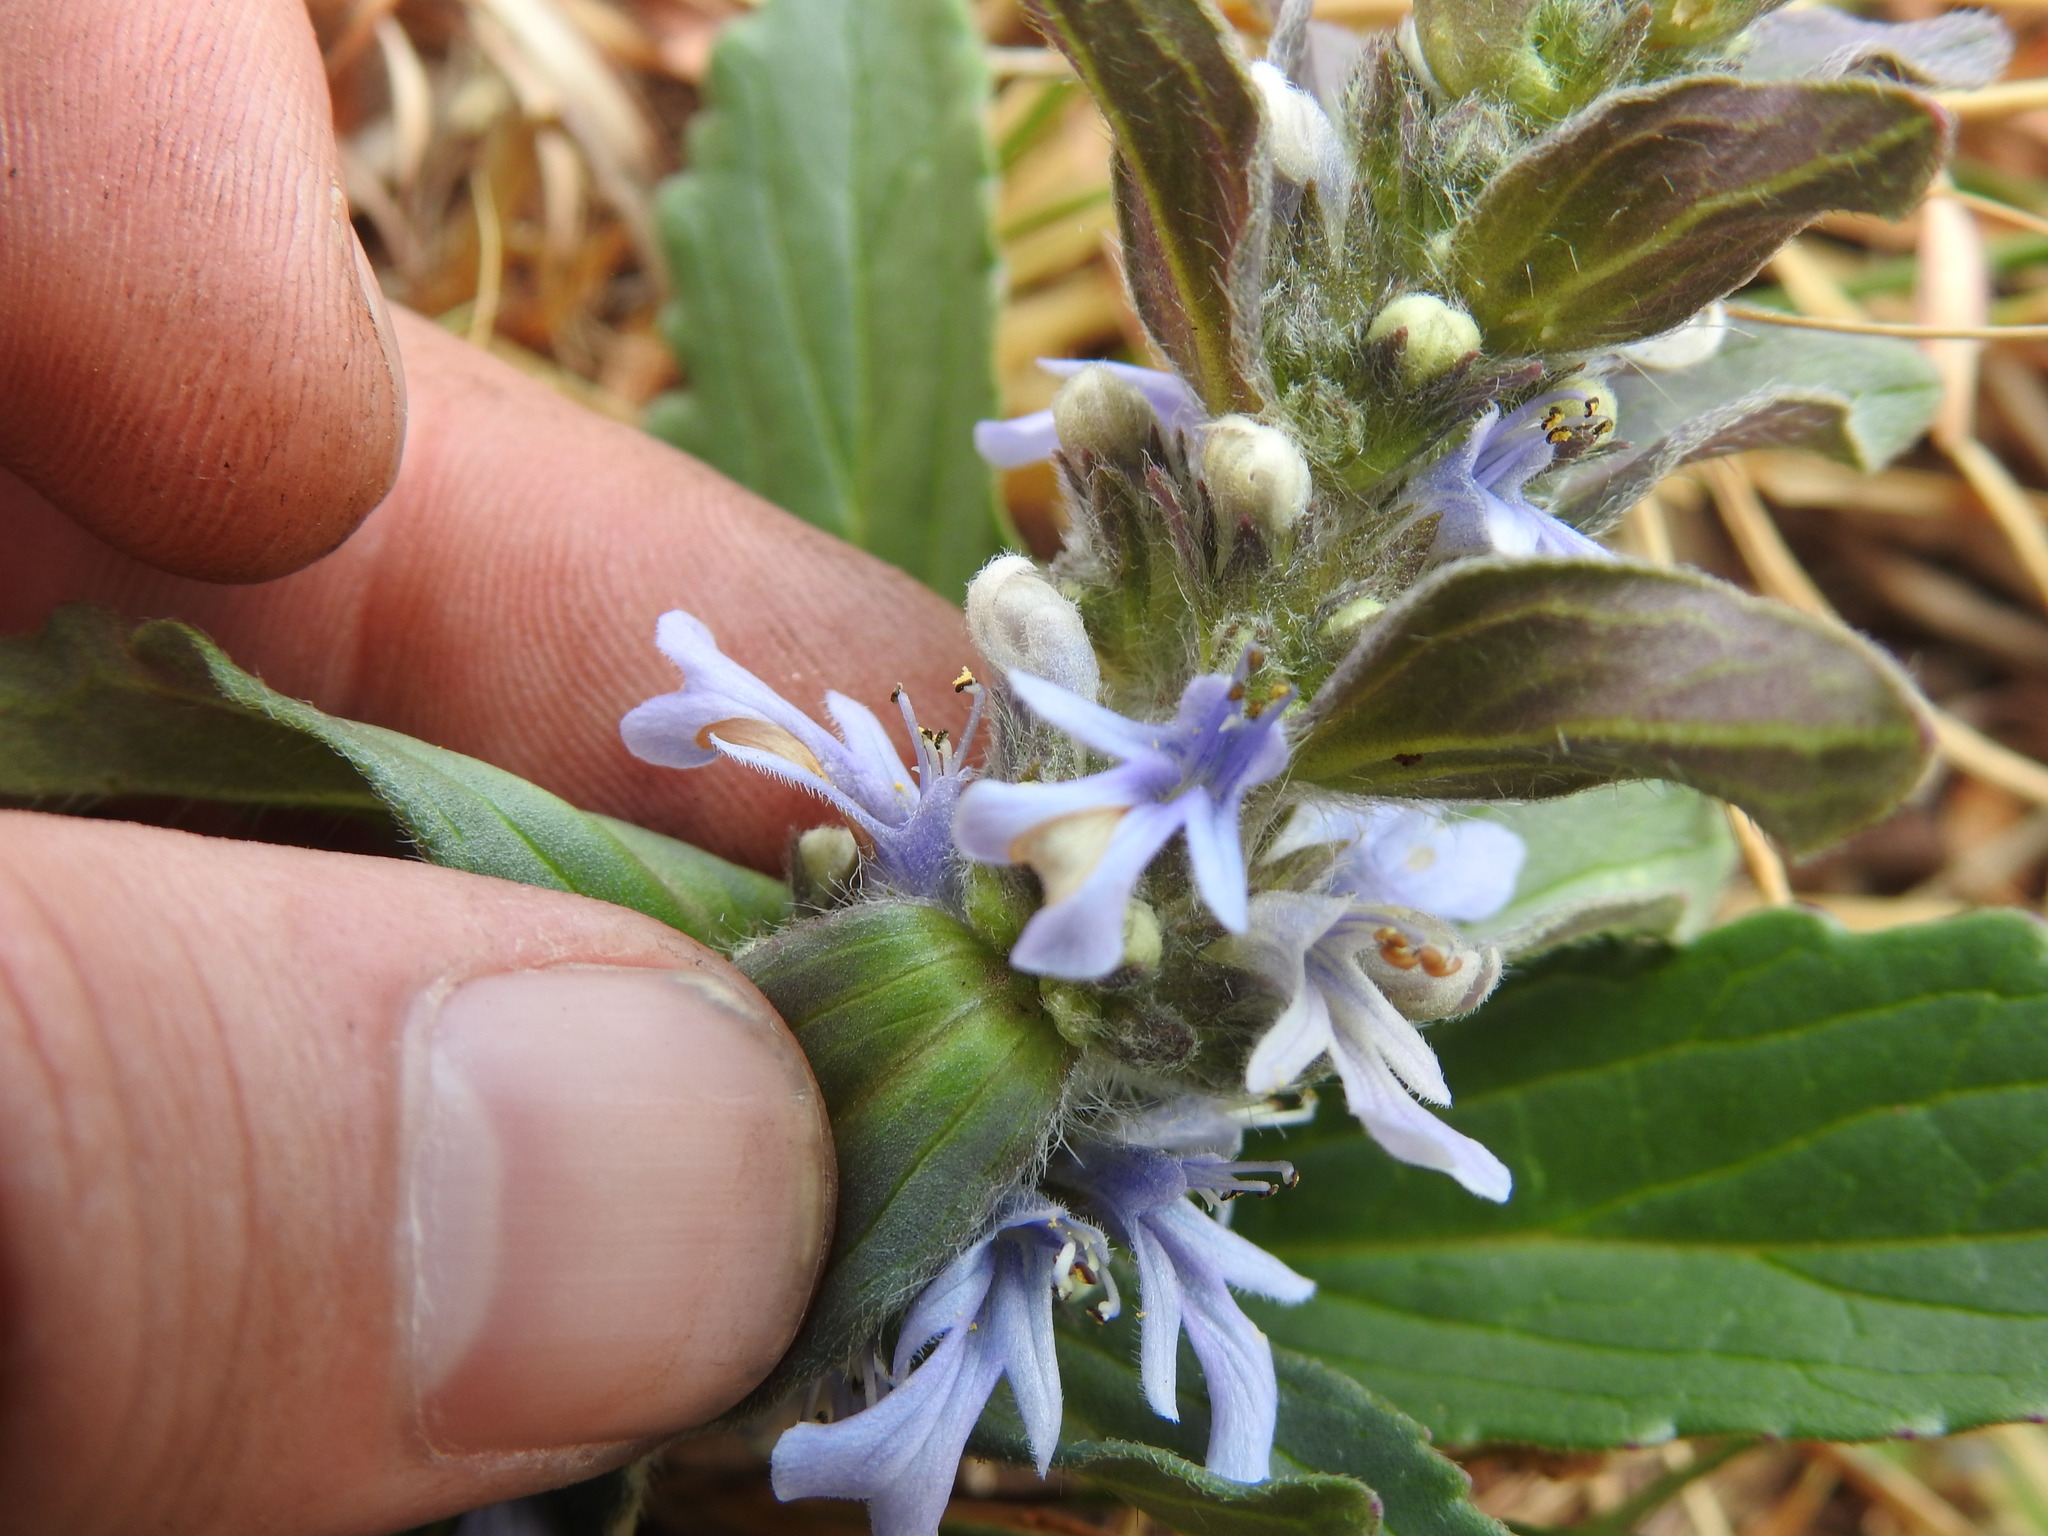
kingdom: Plantae
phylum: Tracheophyta
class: Magnoliopsida
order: Lamiales
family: Lamiaceae
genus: Ajuga
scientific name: Ajuga ophrydis
